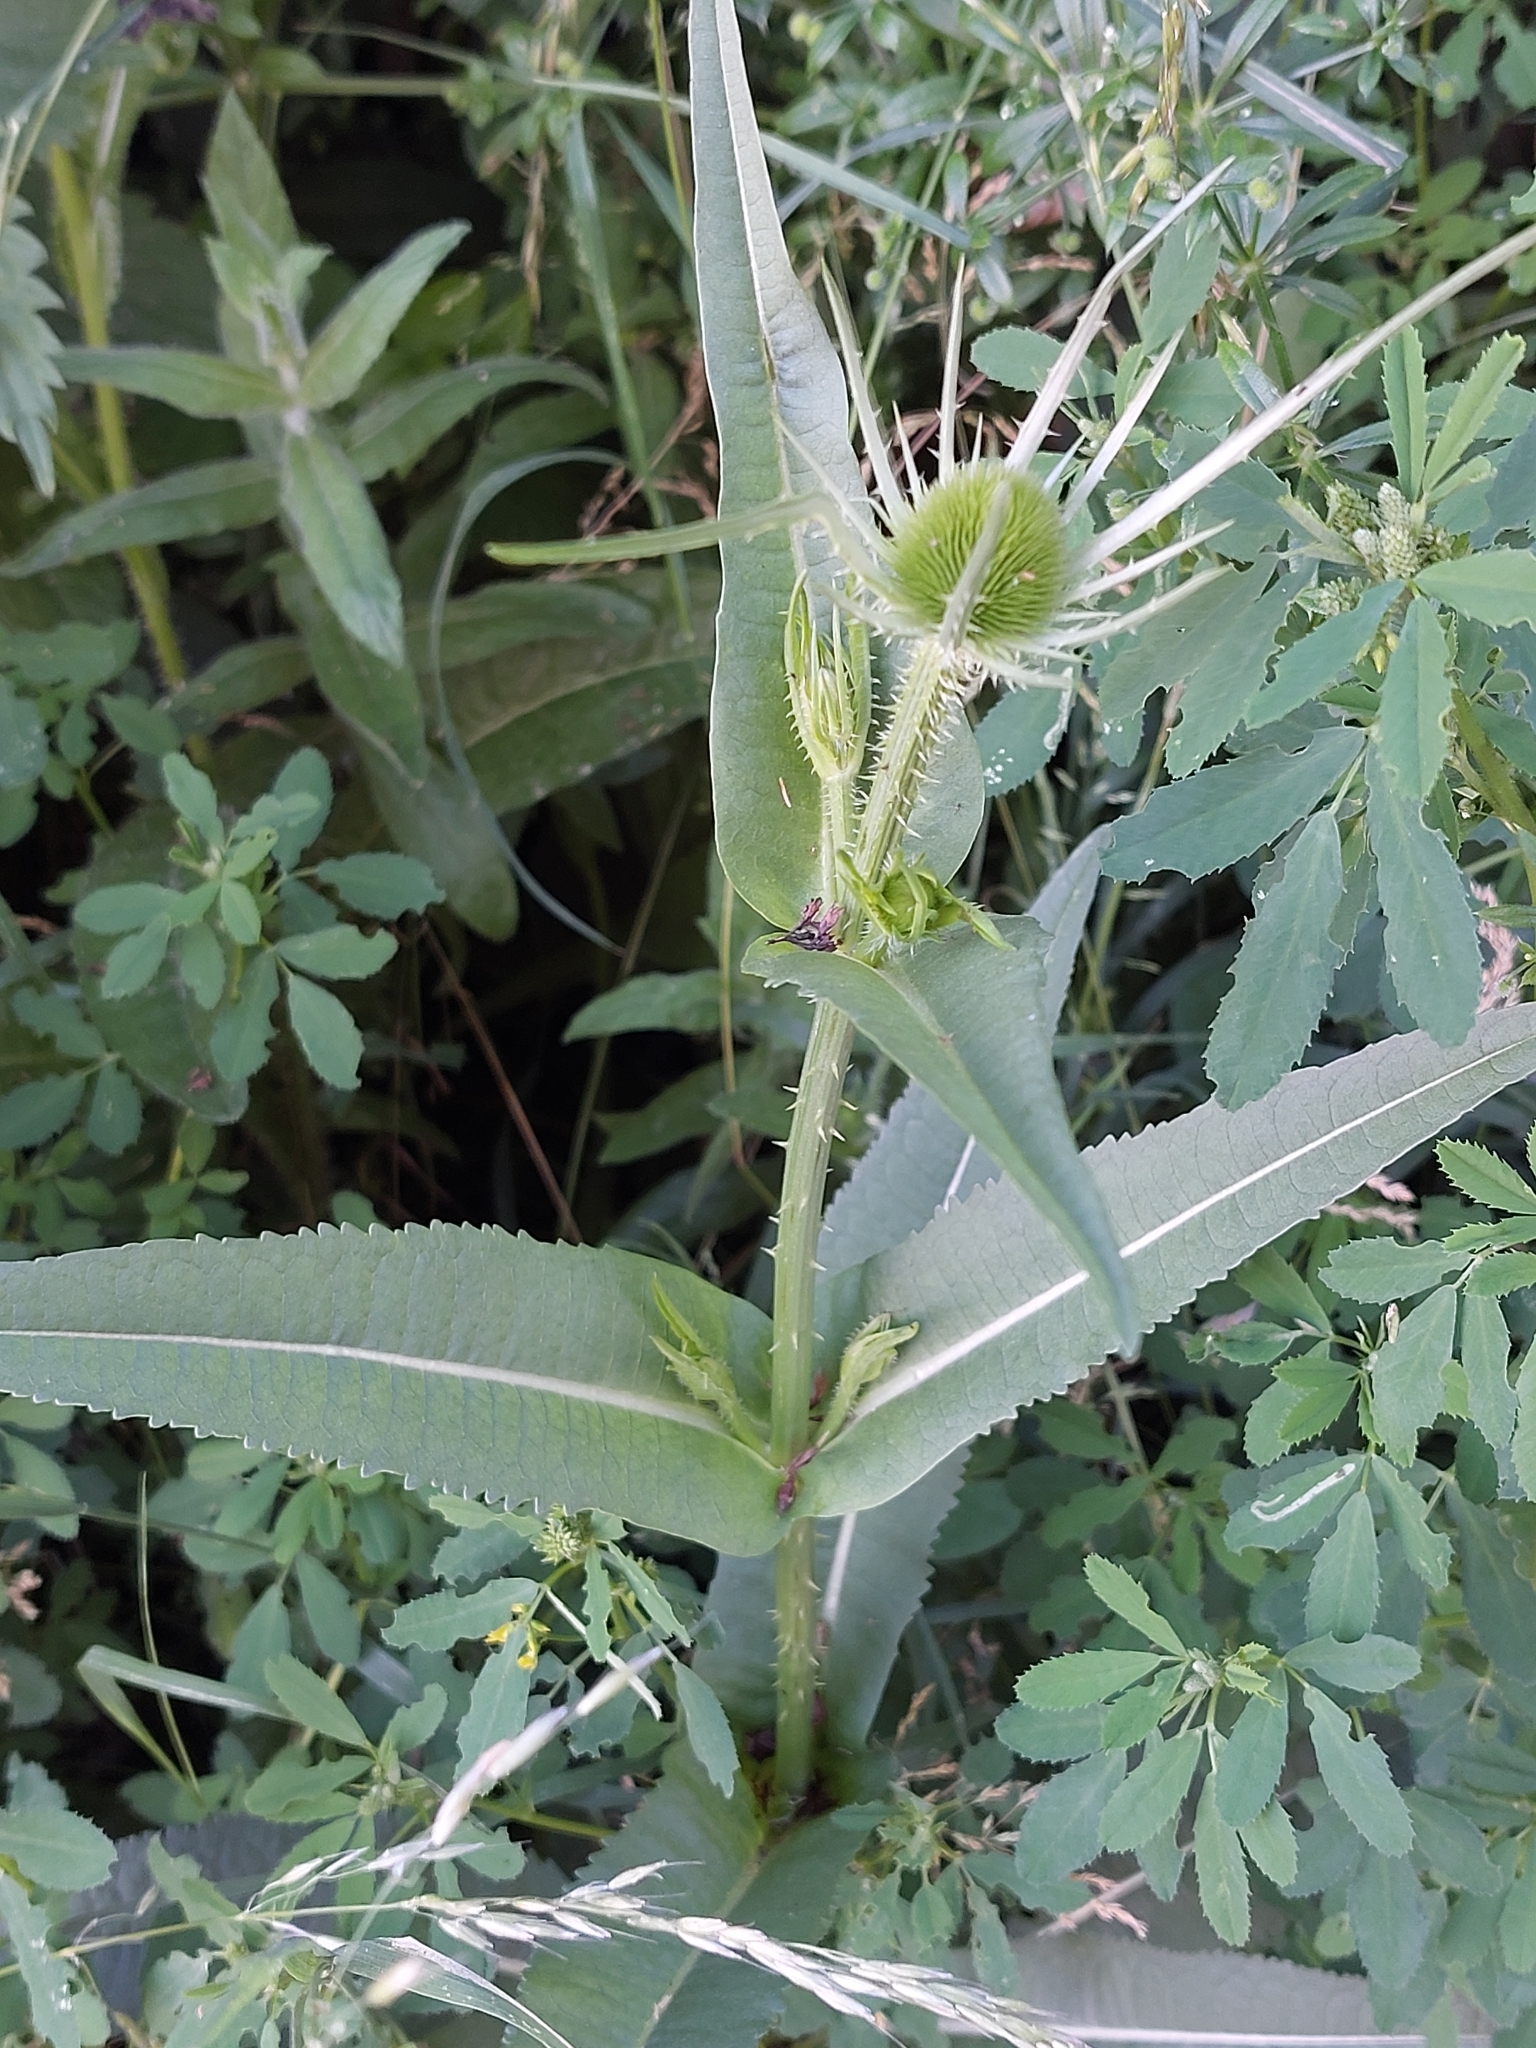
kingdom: Plantae
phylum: Tracheophyta
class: Magnoliopsida
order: Dipsacales
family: Caprifoliaceae
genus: Dipsacus
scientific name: Dipsacus fullonum
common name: Teasel
